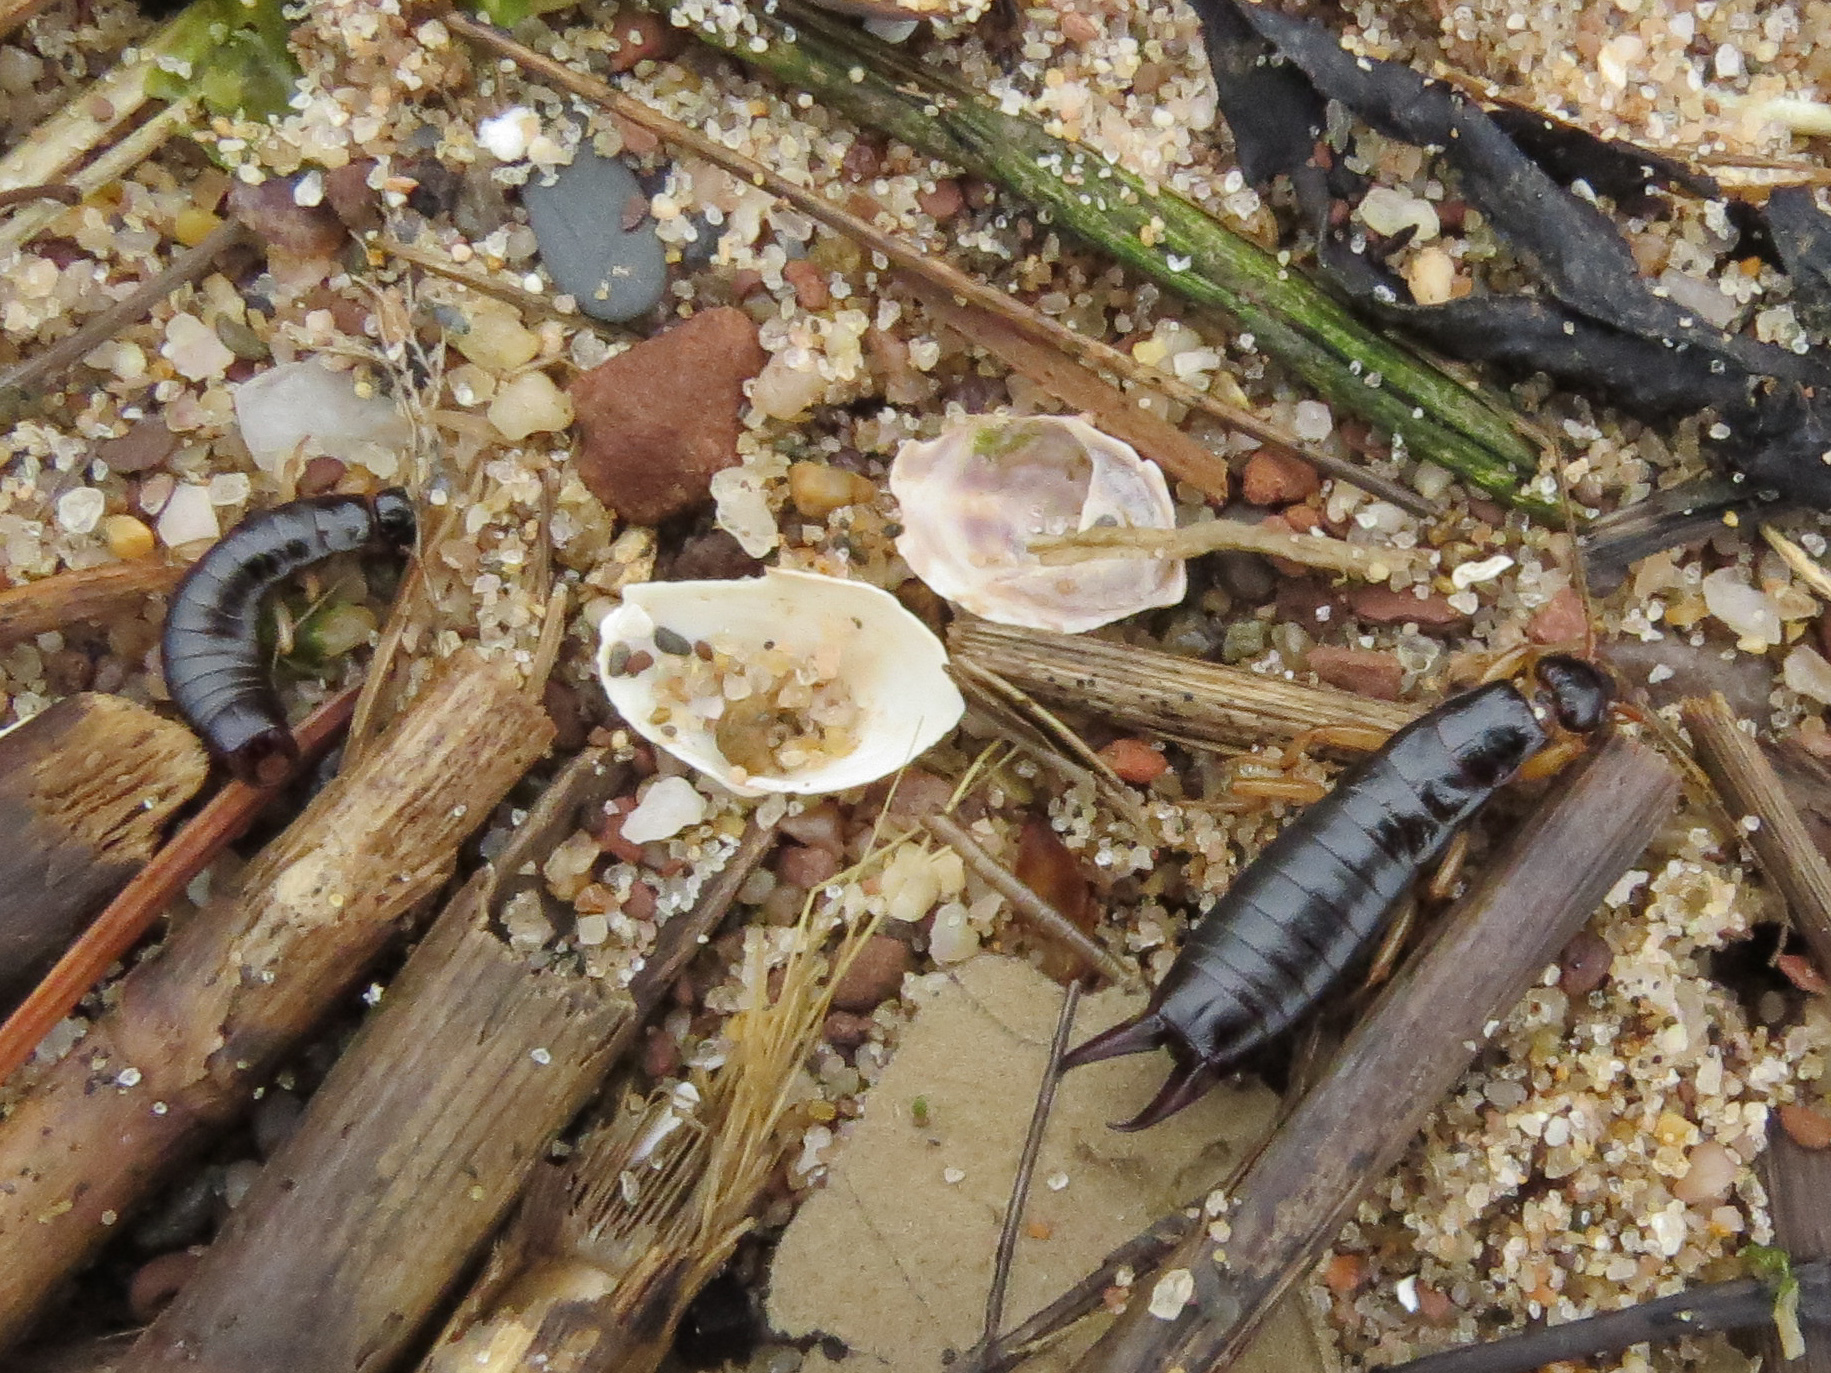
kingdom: Animalia
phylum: Arthropoda
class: Insecta
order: Dermaptera
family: Anisolabididae
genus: Anisolabis
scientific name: Anisolabis maritima
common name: Maritime earwig
